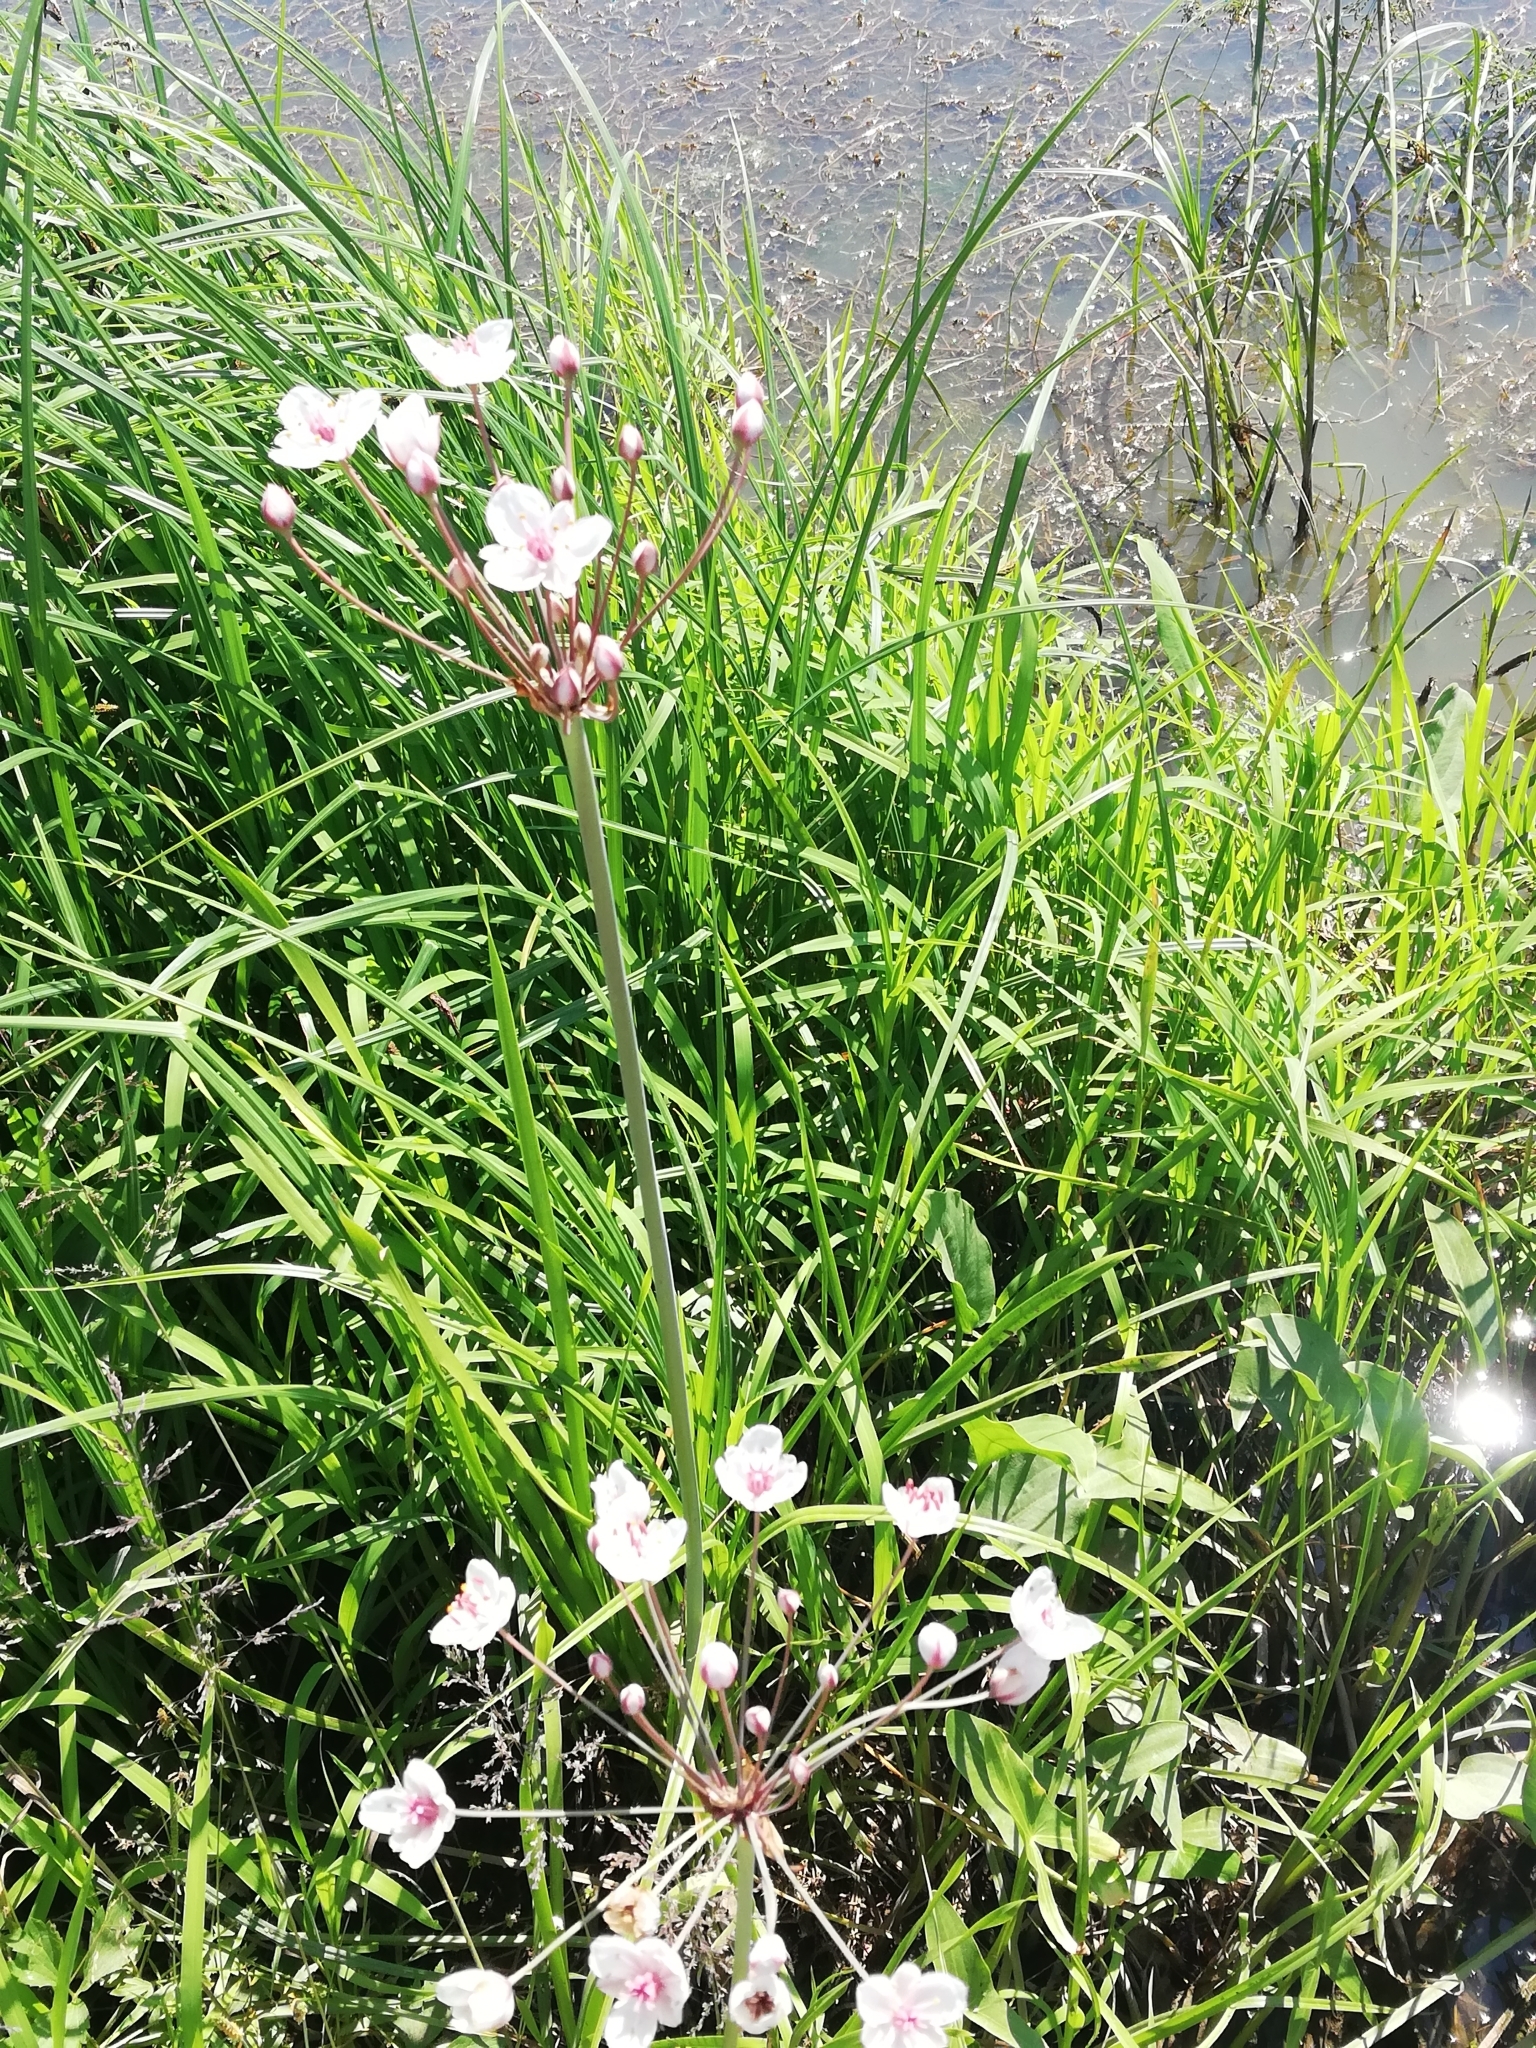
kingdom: Plantae
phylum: Tracheophyta
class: Liliopsida
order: Alismatales
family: Butomaceae
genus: Butomus
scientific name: Butomus umbellatus
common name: Flowering-rush
